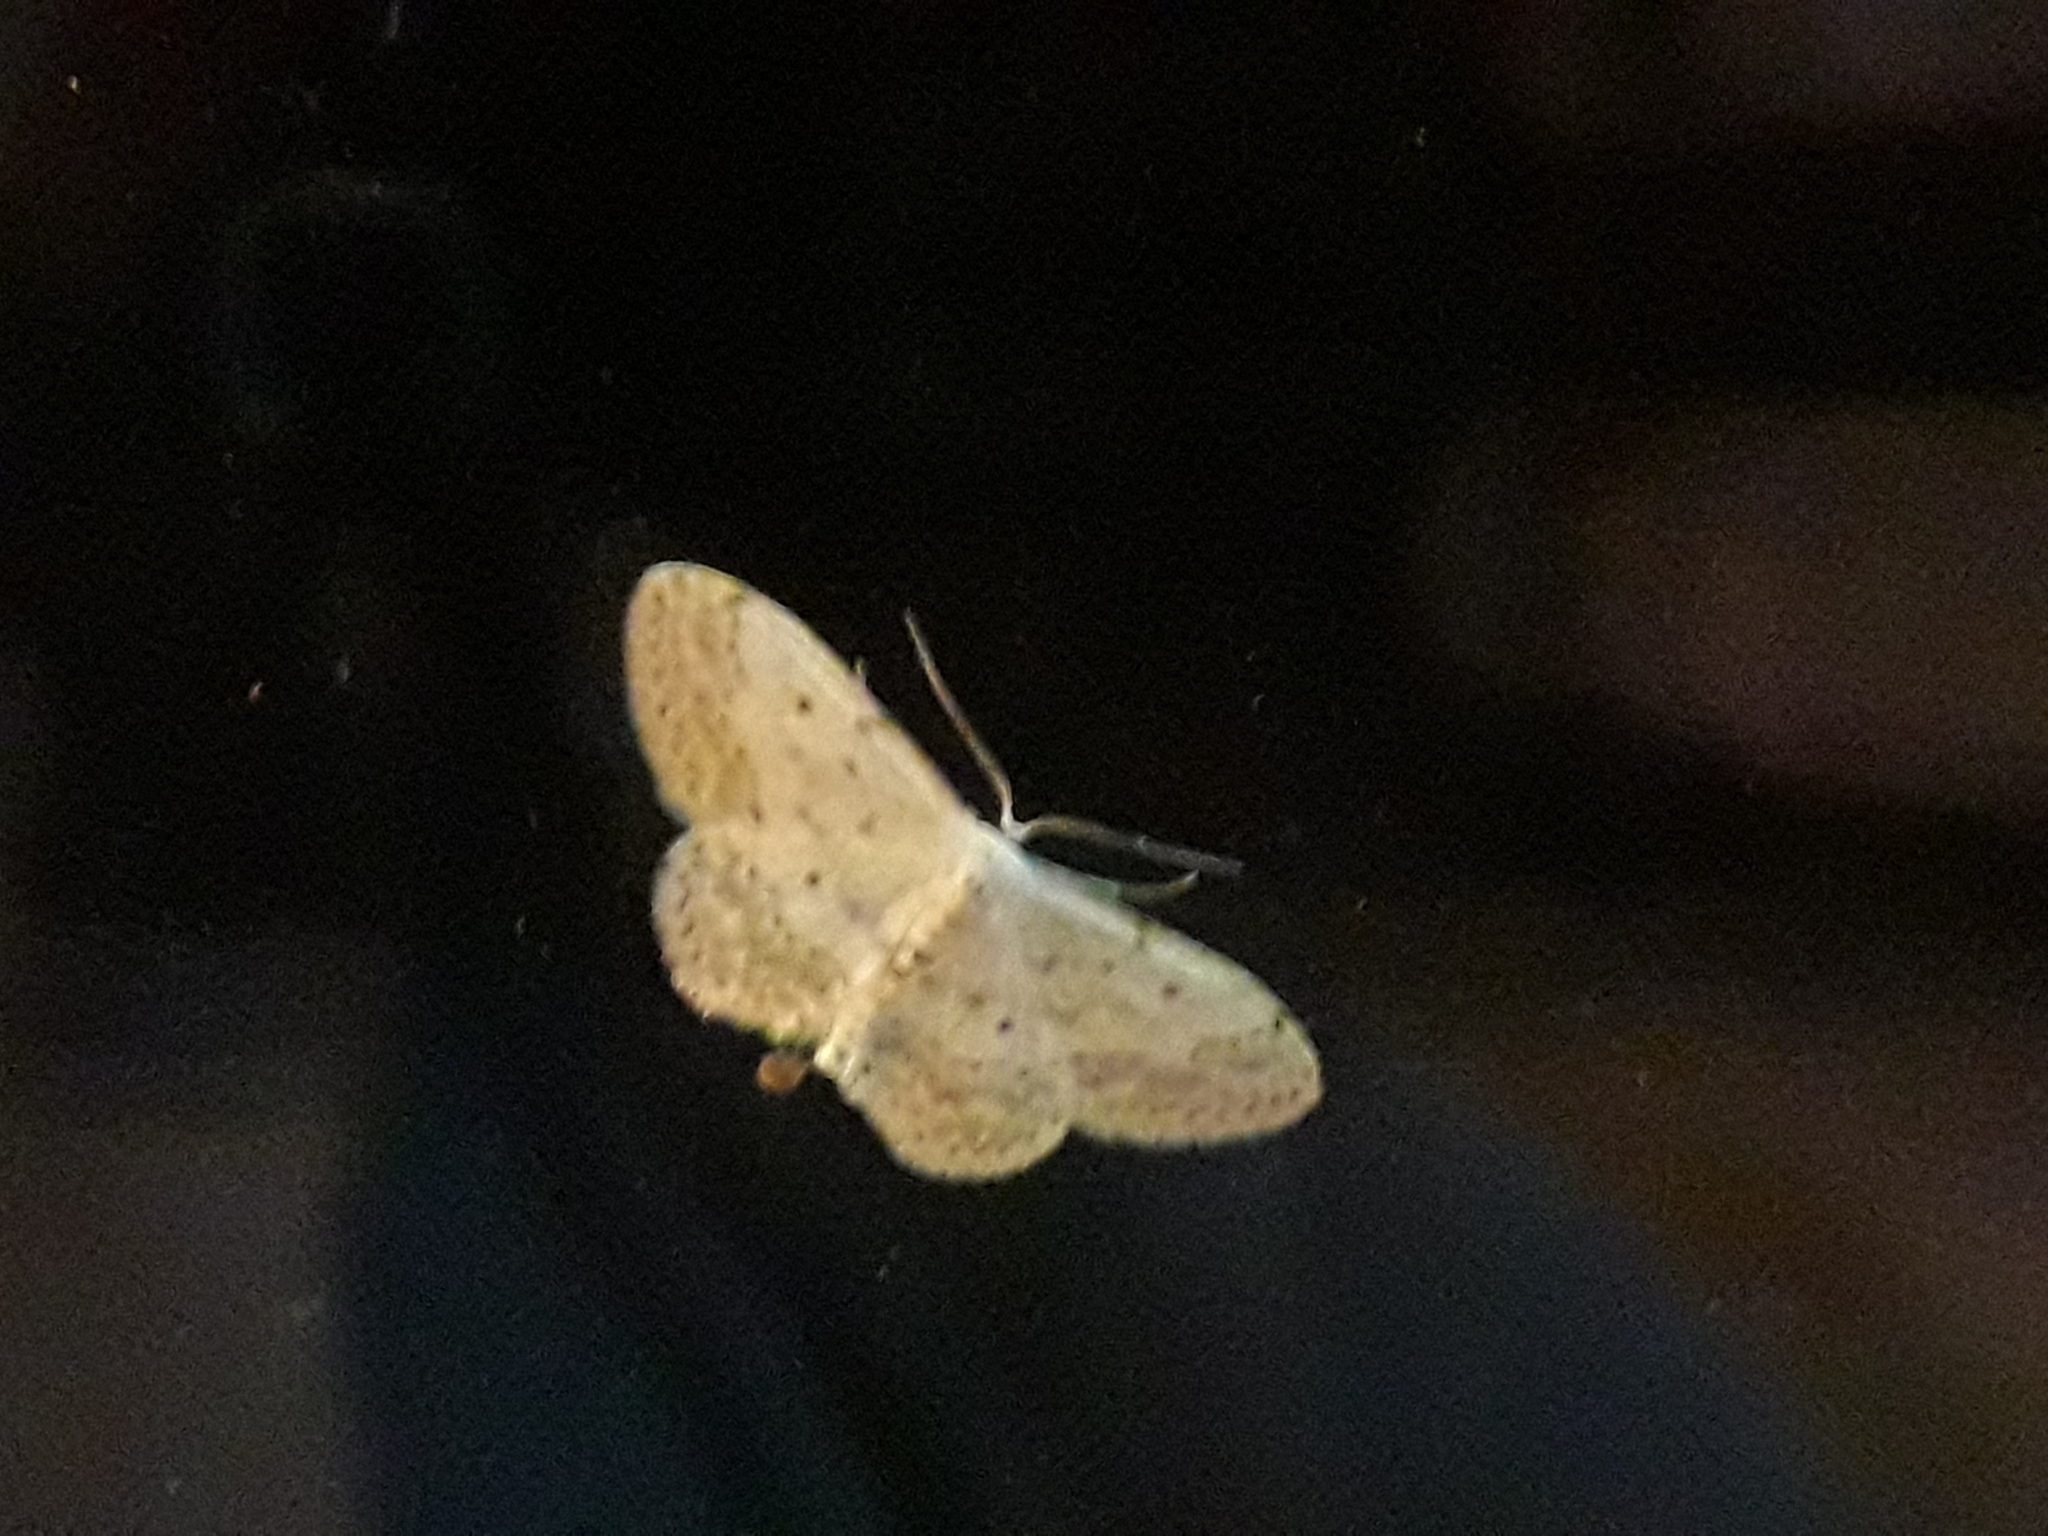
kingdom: Animalia
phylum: Arthropoda
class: Insecta
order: Lepidoptera
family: Geometridae
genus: Idaea
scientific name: Idaea seriata
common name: Small dusty wave
